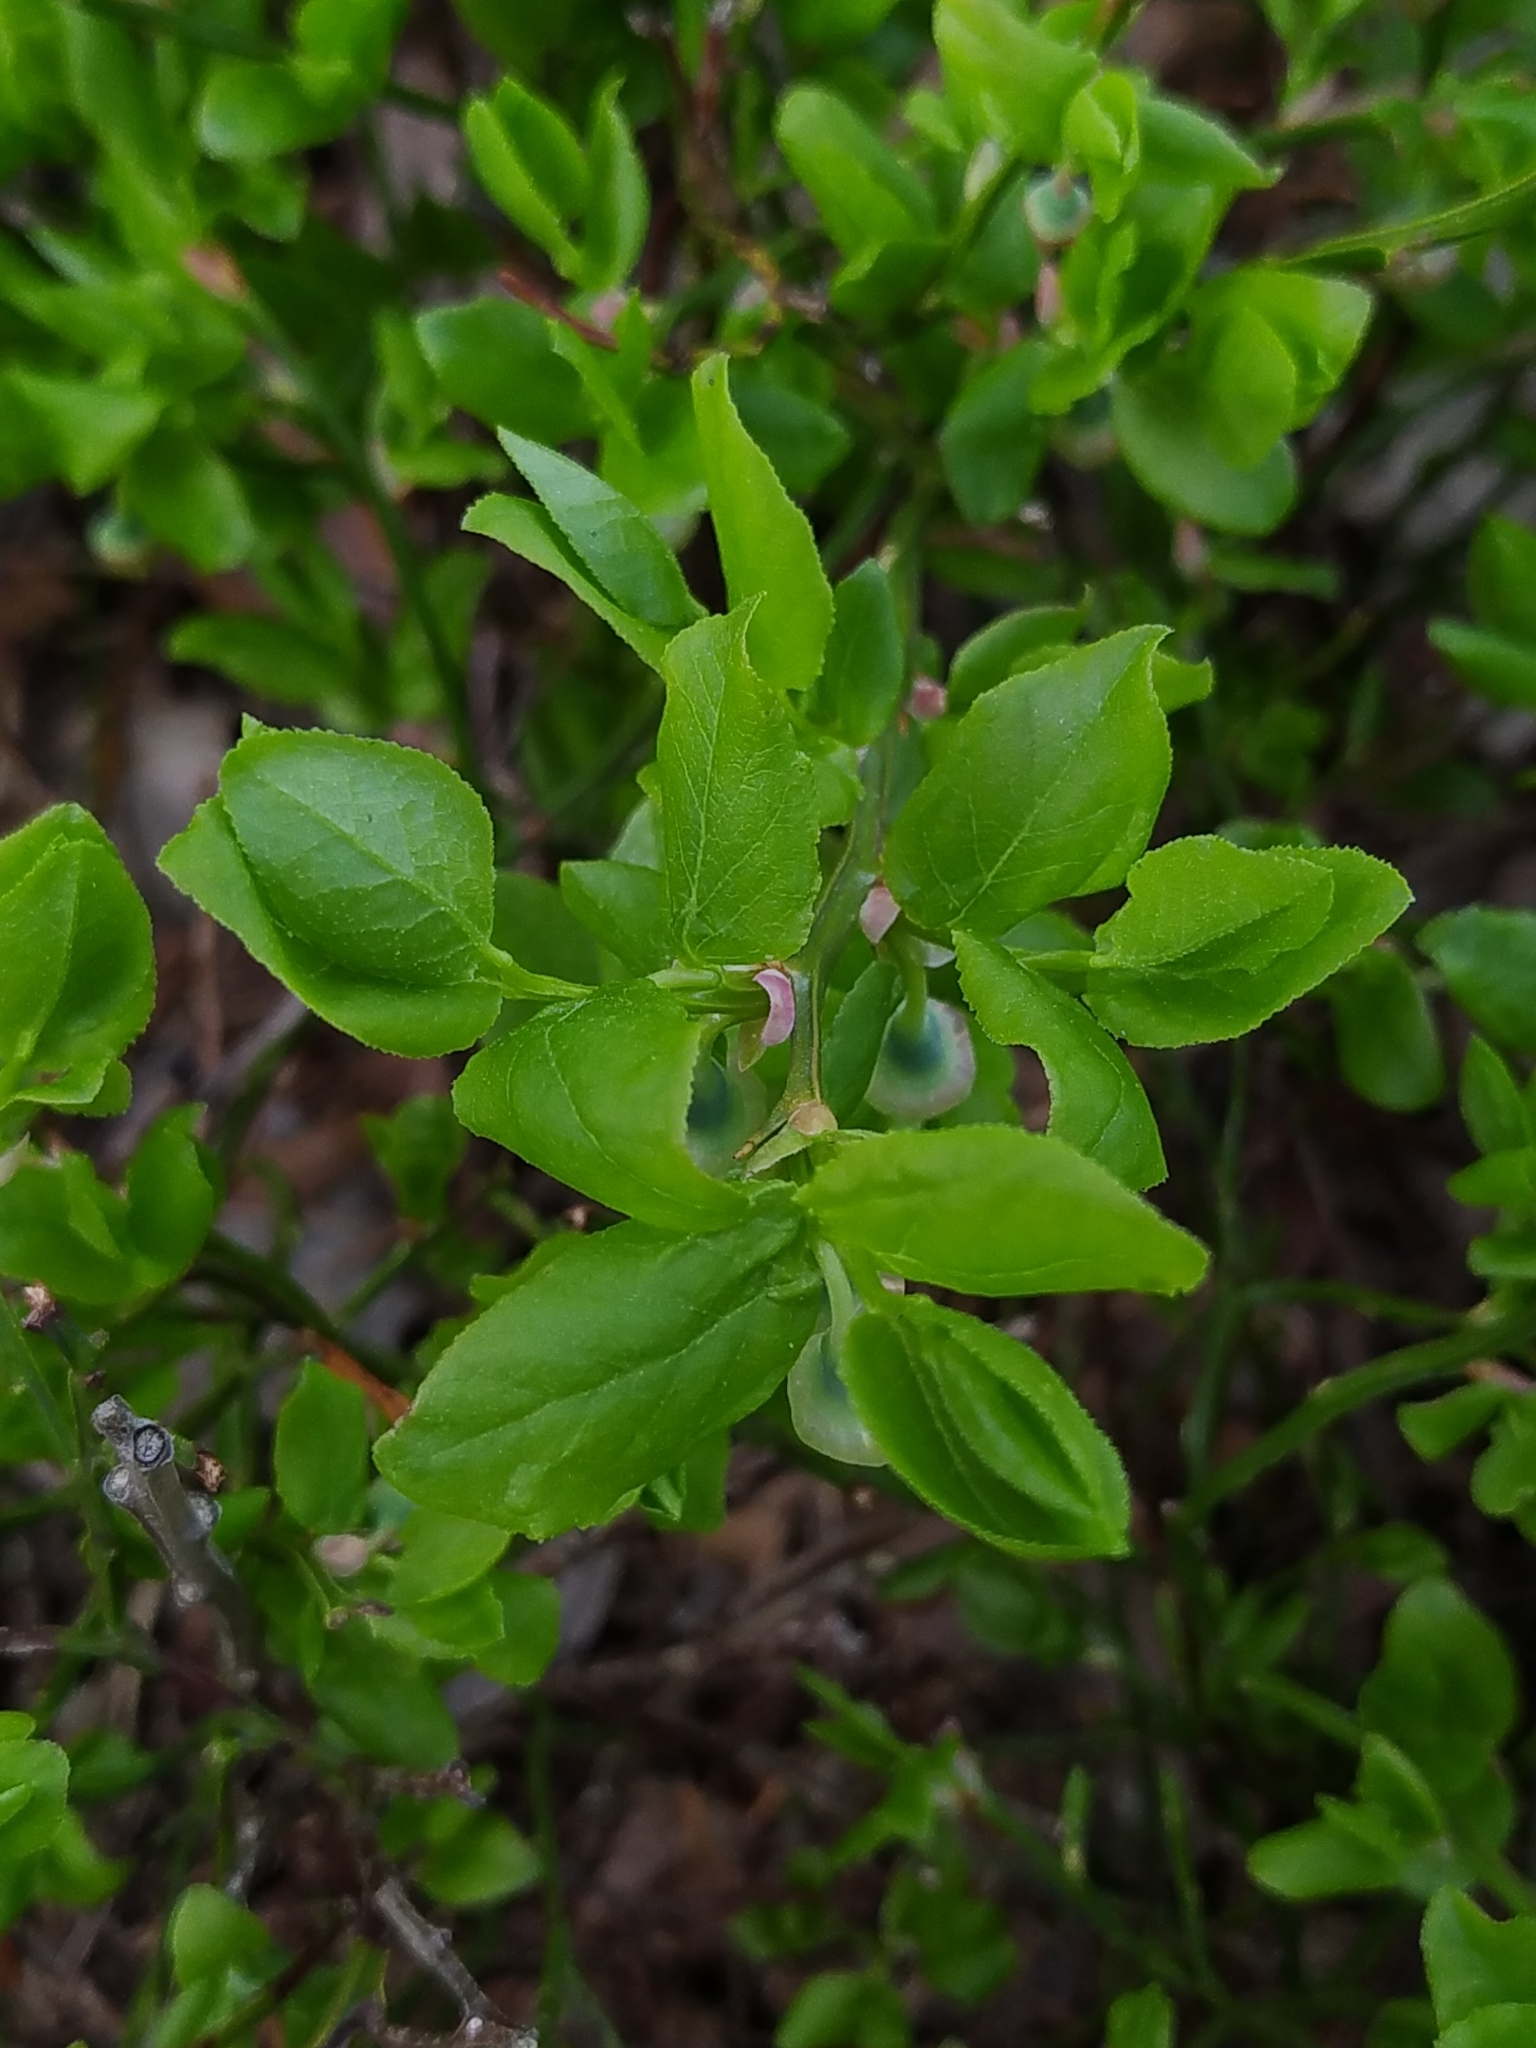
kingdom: Plantae
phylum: Tracheophyta
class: Magnoliopsida
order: Ericales
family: Ericaceae
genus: Vaccinium
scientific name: Vaccinium myrtillus
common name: Bilberry
